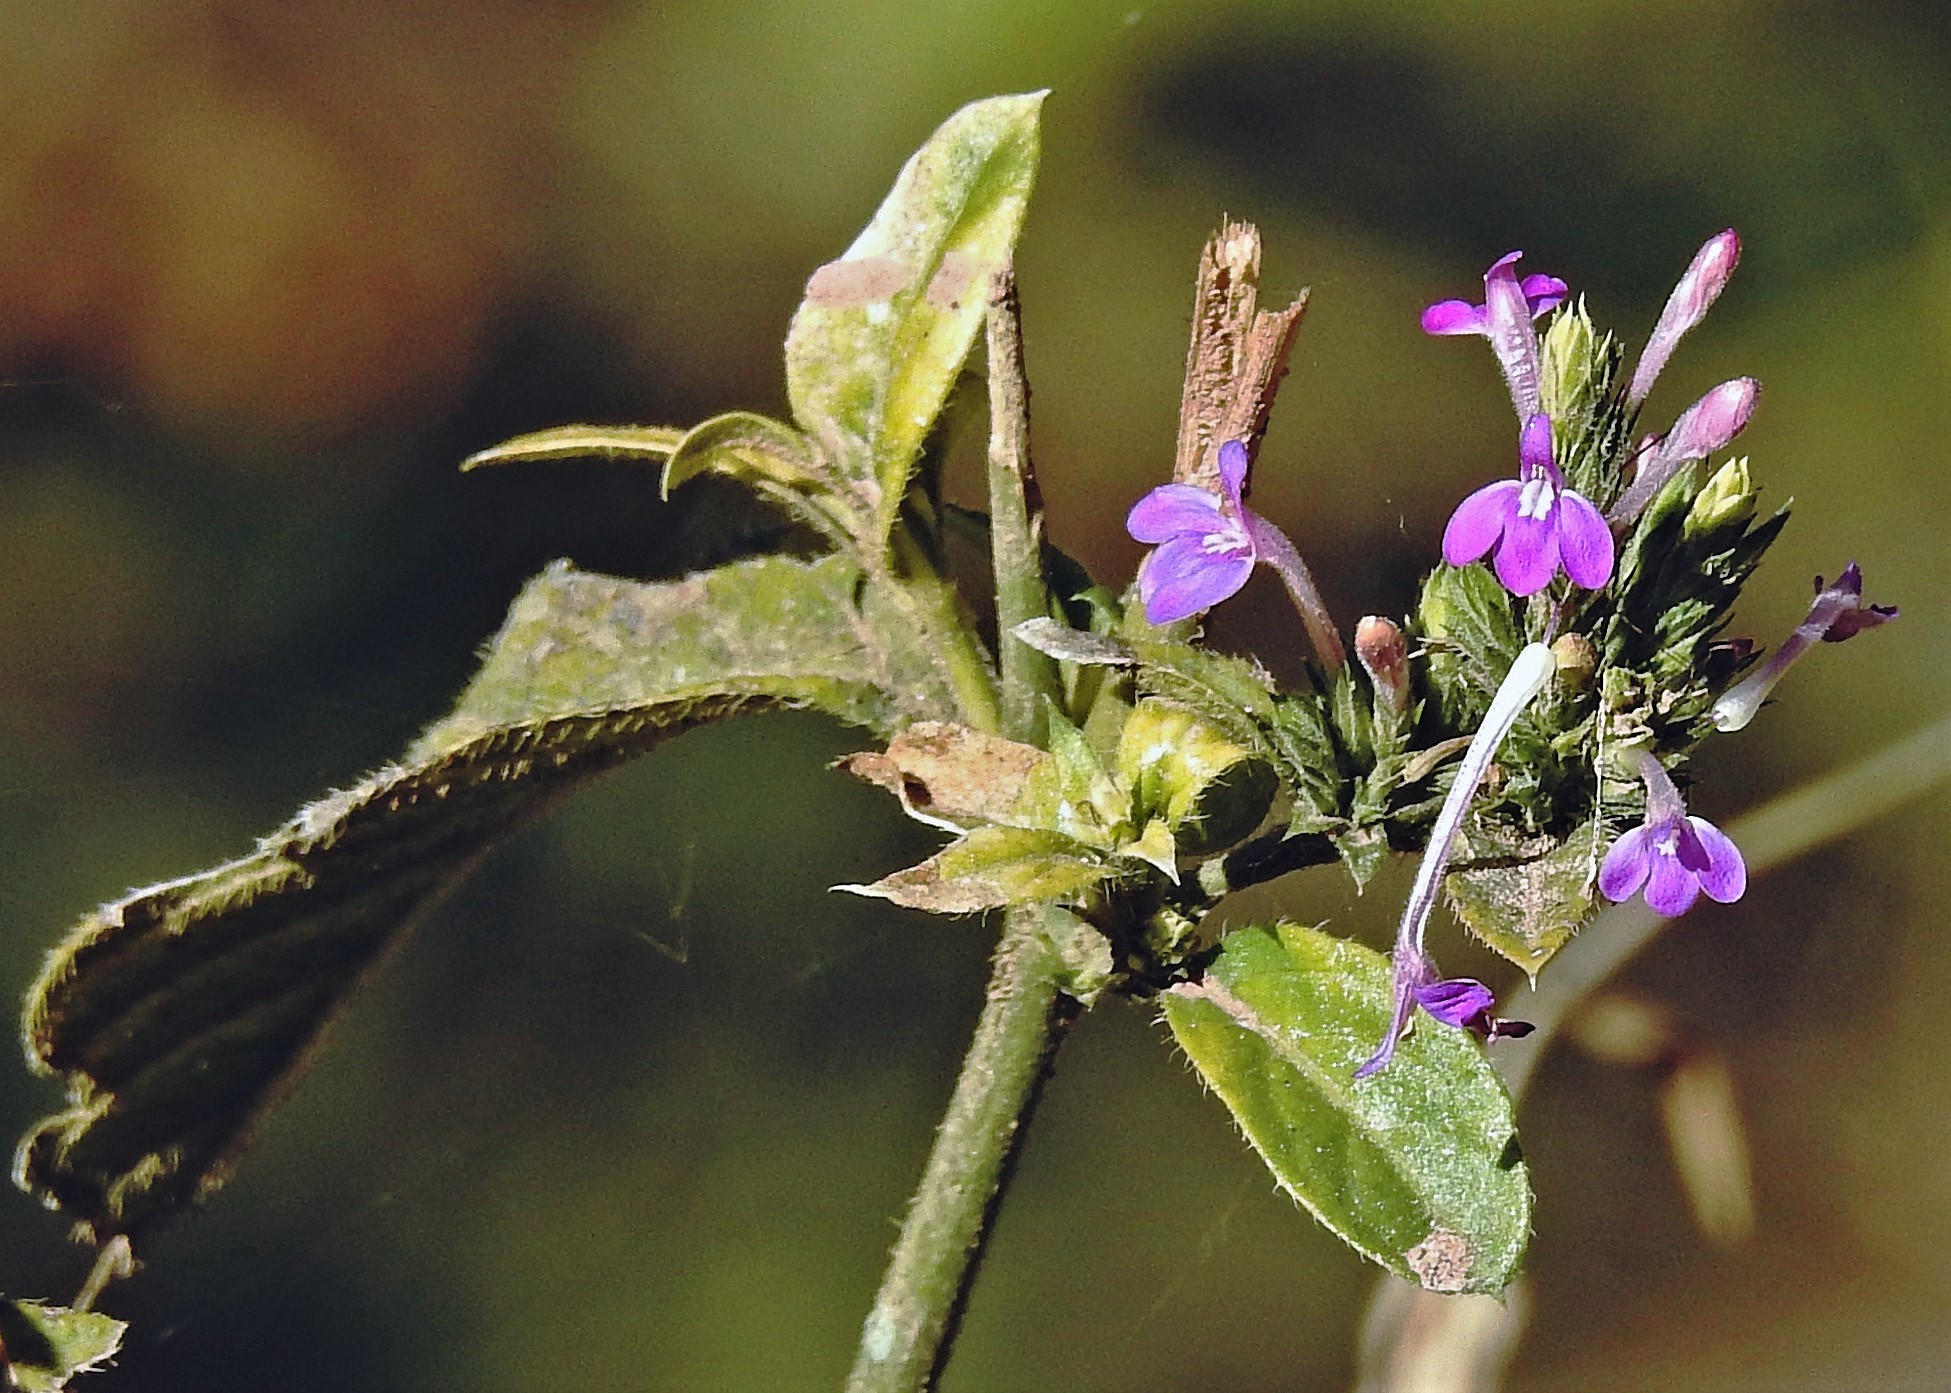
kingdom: Plantae
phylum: Tracheophyta
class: Magnoliopsida
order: Lamiales
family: Acanthaceae
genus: Justicia
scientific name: Justicia goudotii
